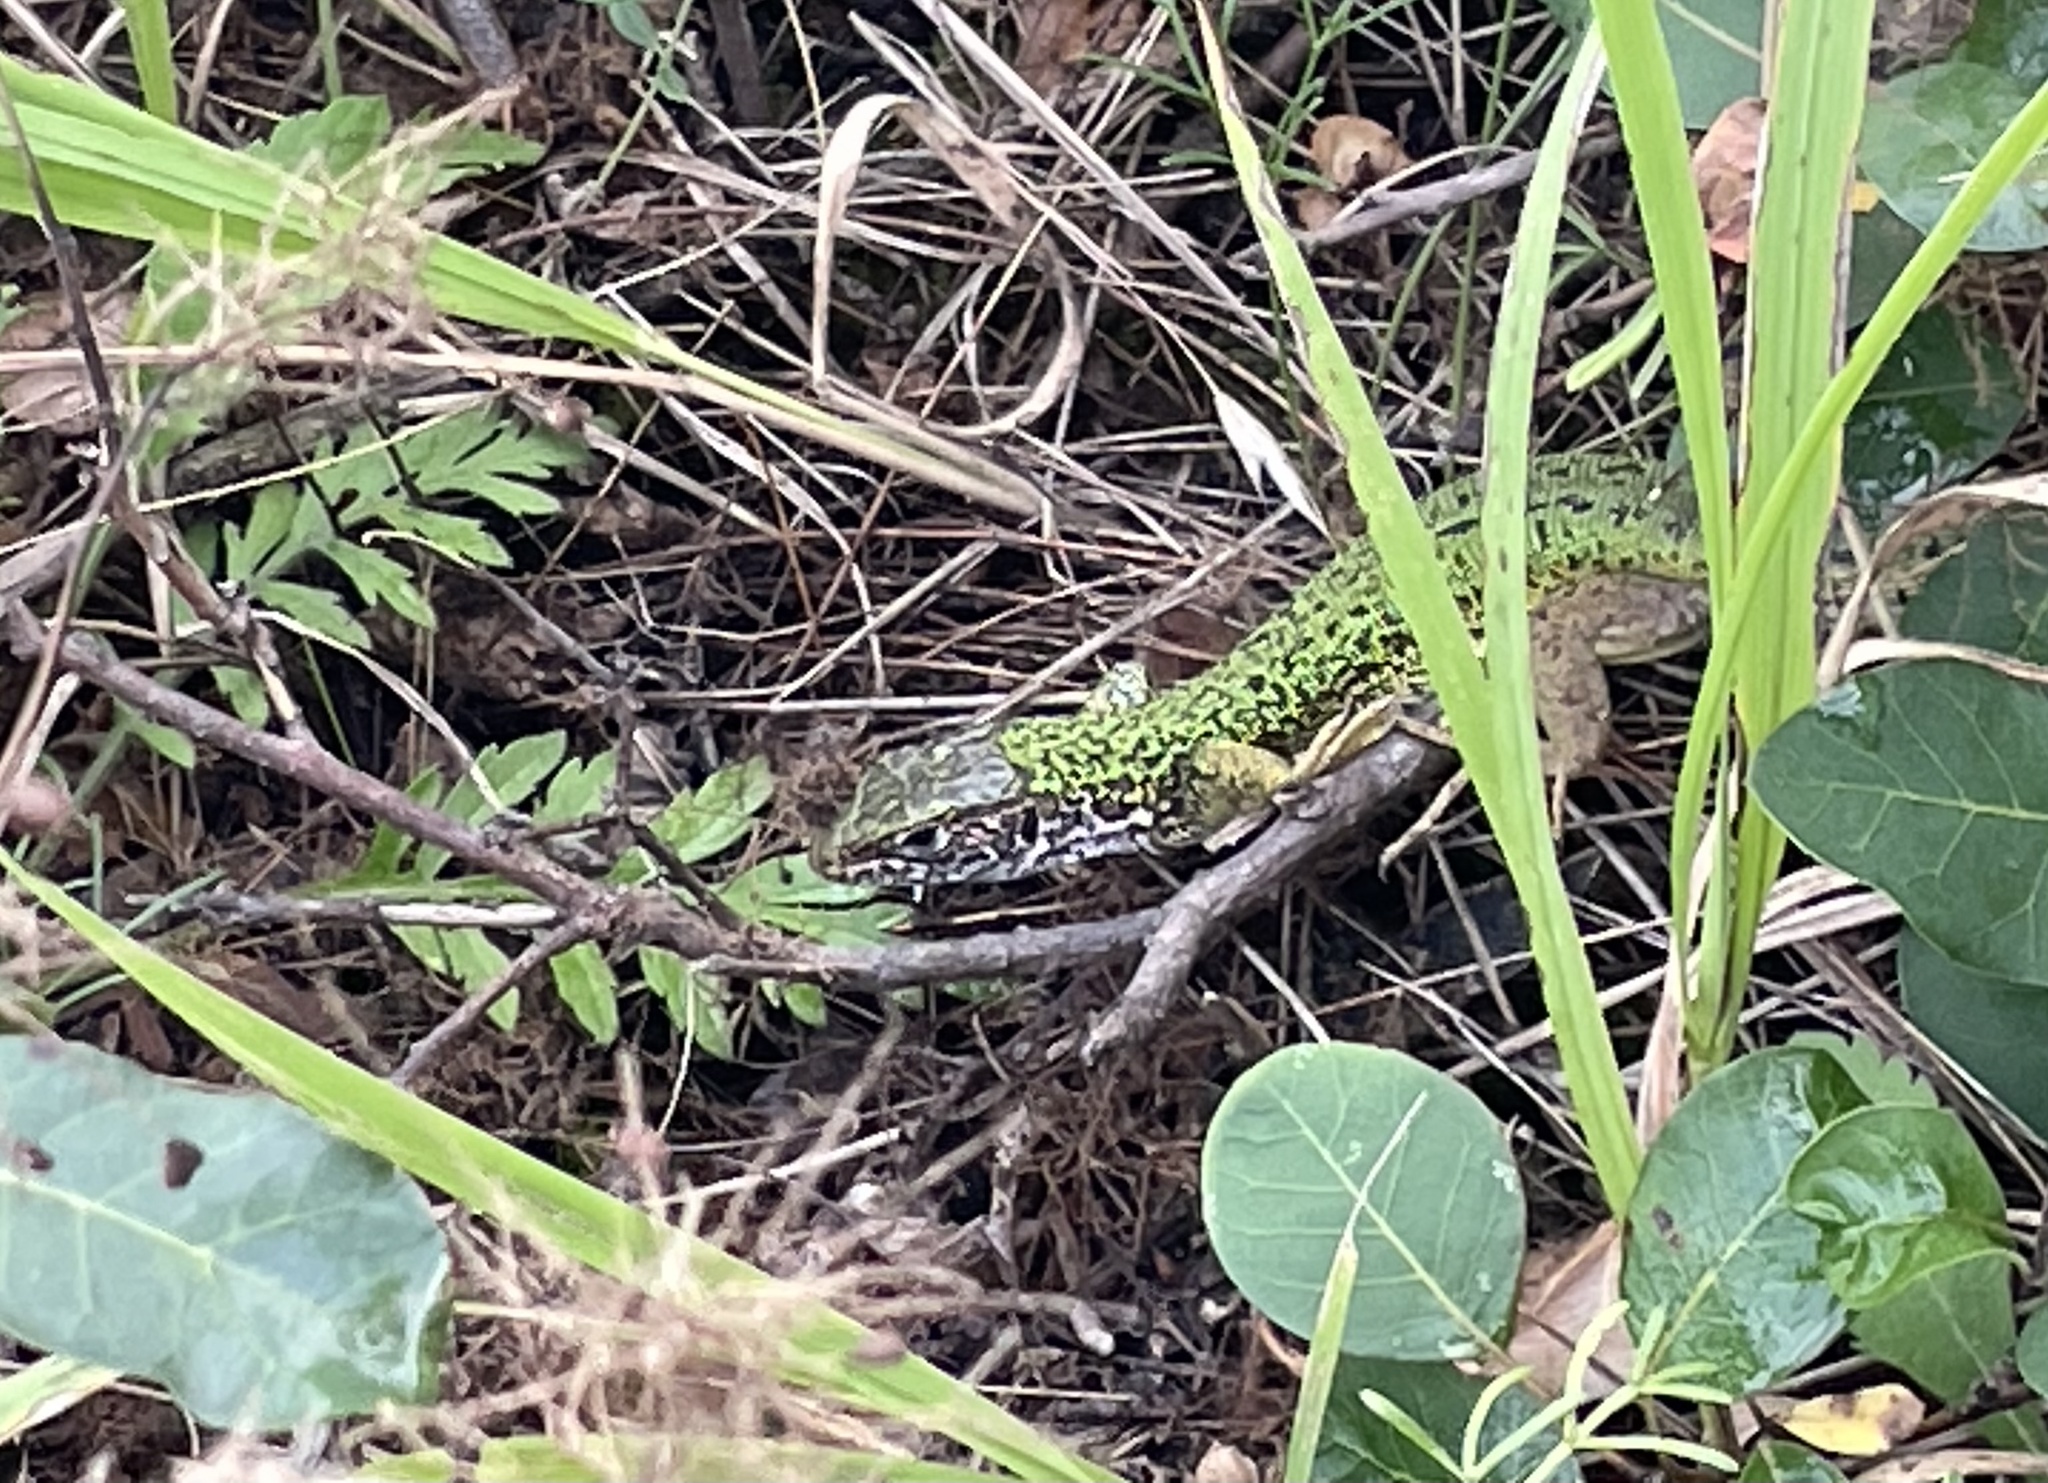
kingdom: Animalia
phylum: Chordata
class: Squamata
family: Lacertidae
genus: Lacerta
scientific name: Lacerta viridis
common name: European green lizard
